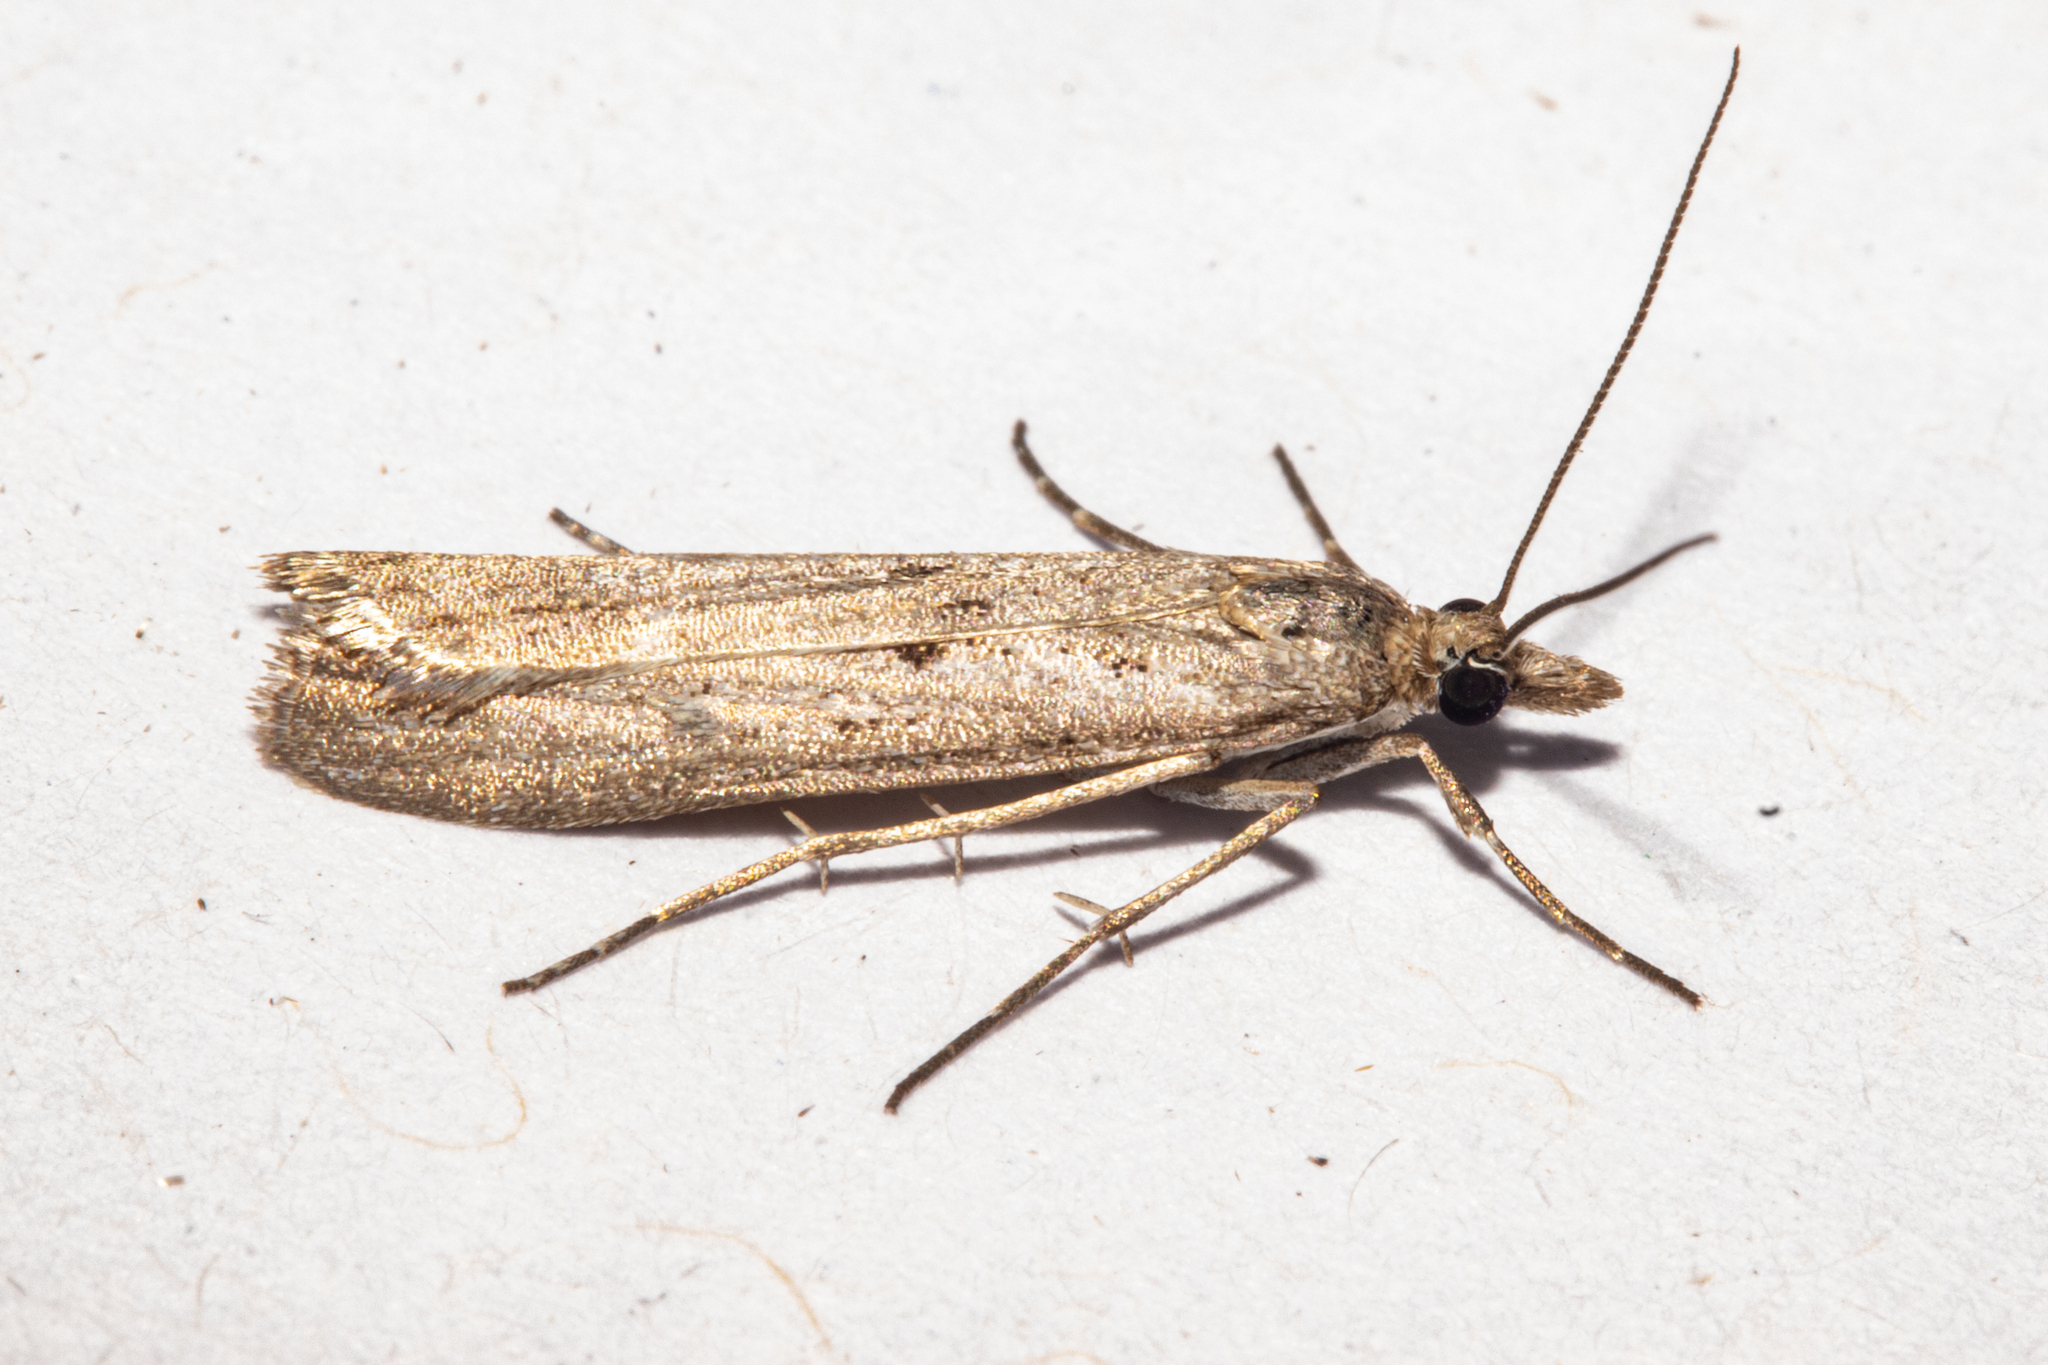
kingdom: Animalia
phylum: Arthropoda
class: Insecta
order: Lepidoptera
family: Crambidae
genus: Eudonia
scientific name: Eudonia leptalea
